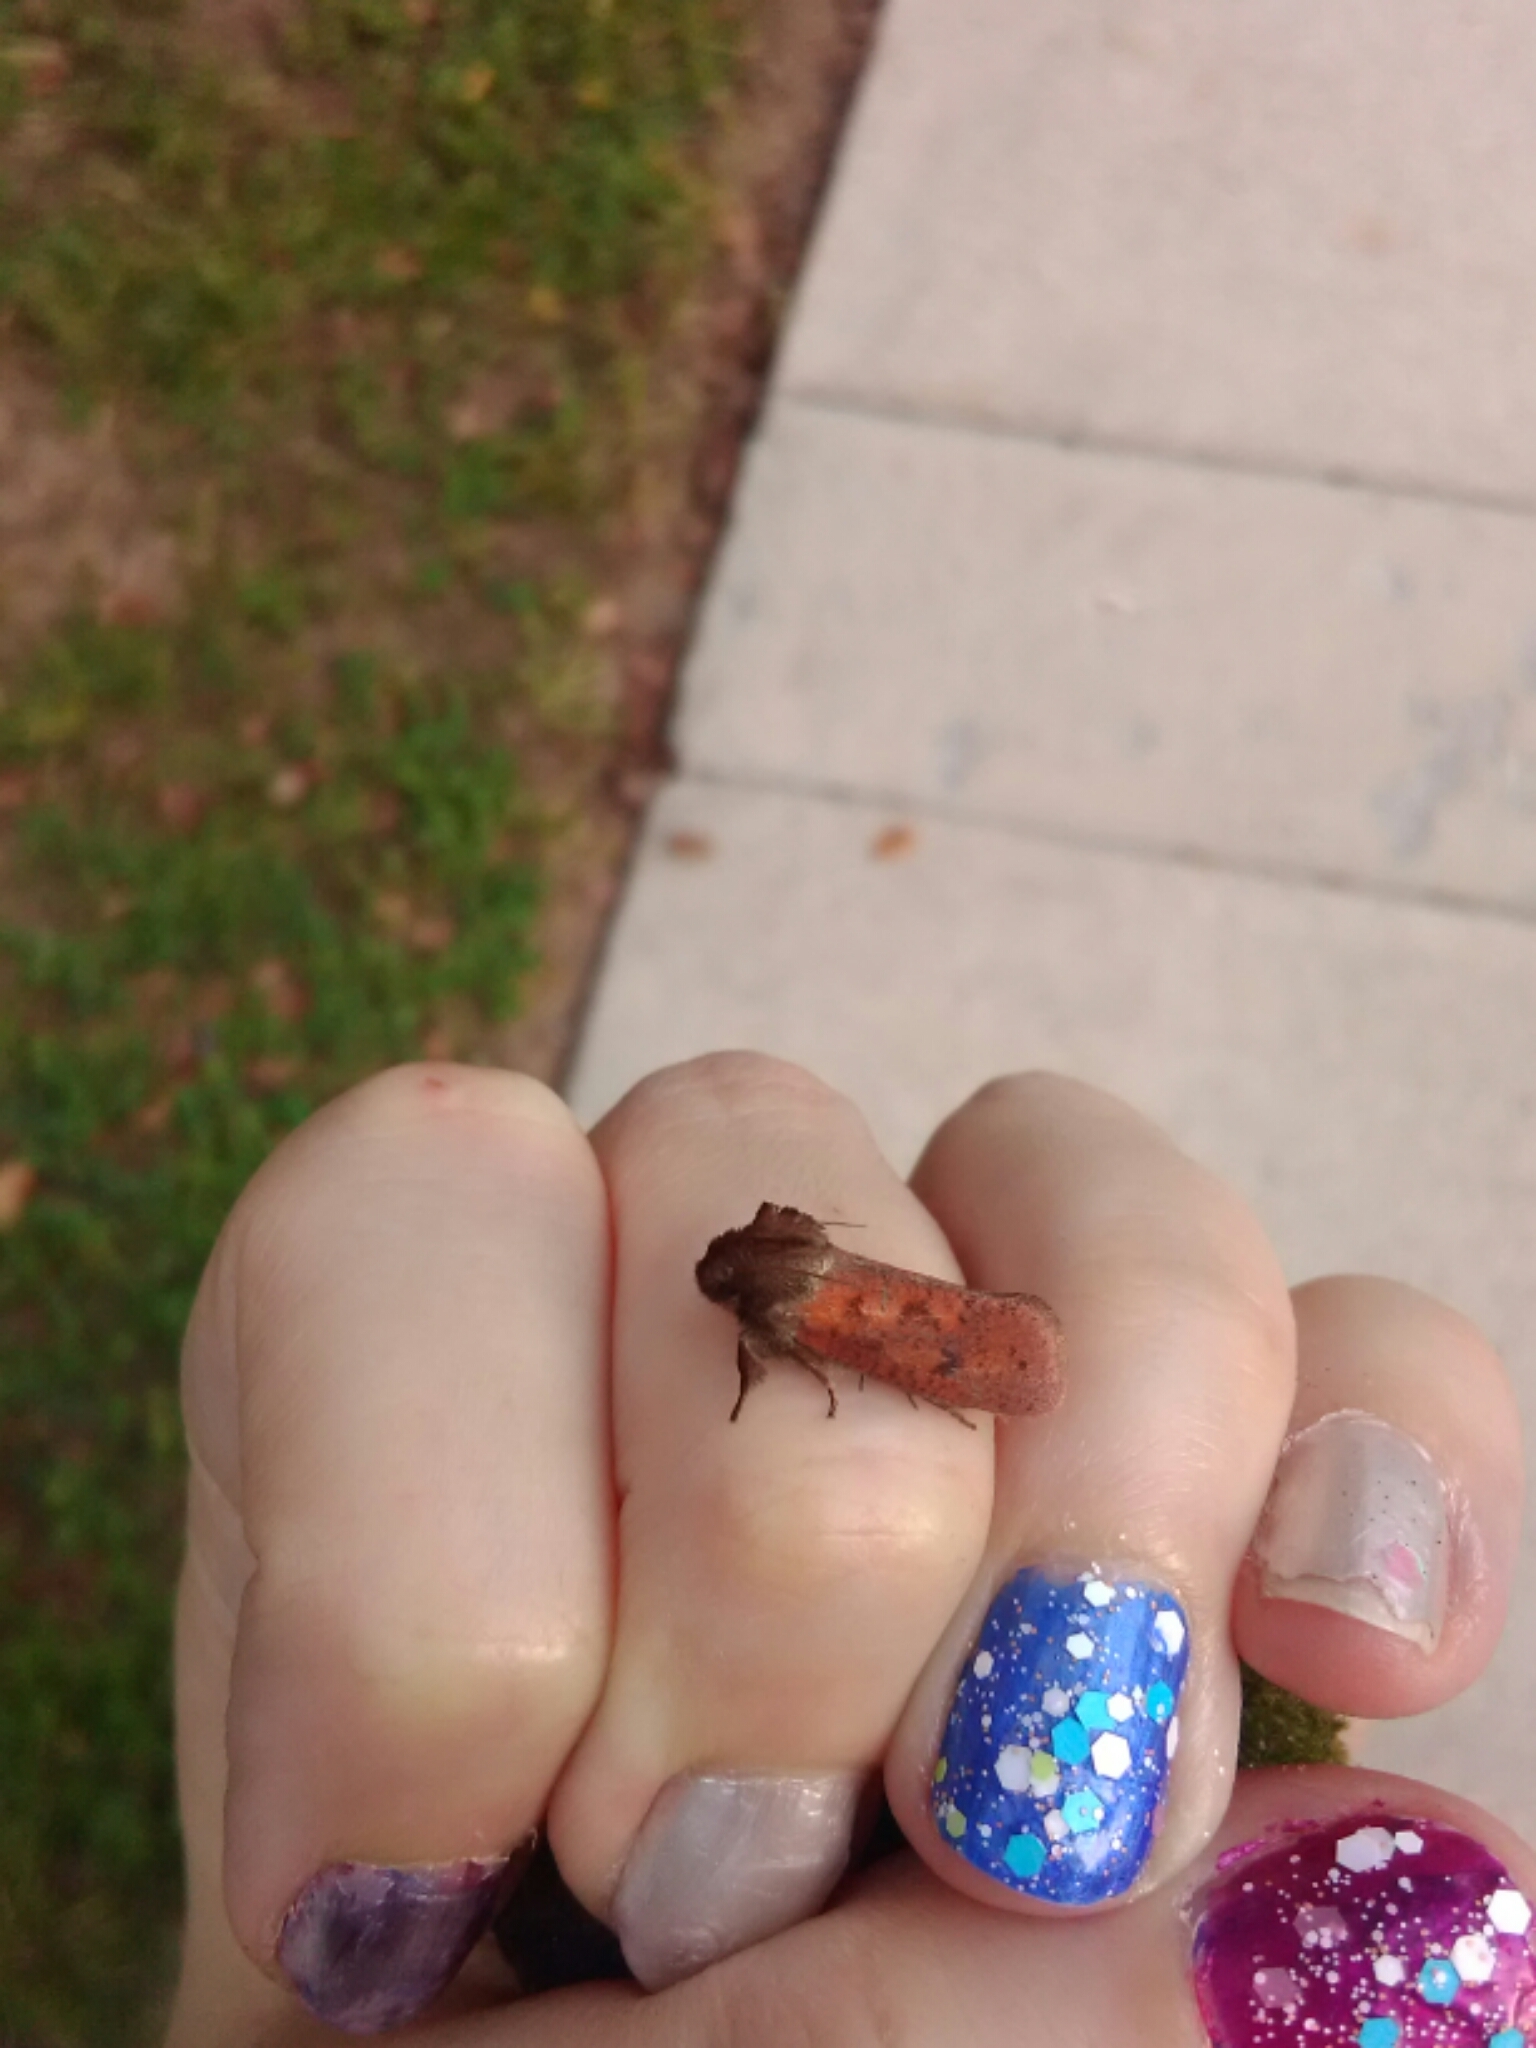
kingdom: Animalia
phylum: Arthropoda
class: Insecta
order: Lepidoptera
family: Tineidae
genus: Acrolophus
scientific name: Acrolophus plumifrontella
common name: Eastern grass tubeworm moth
